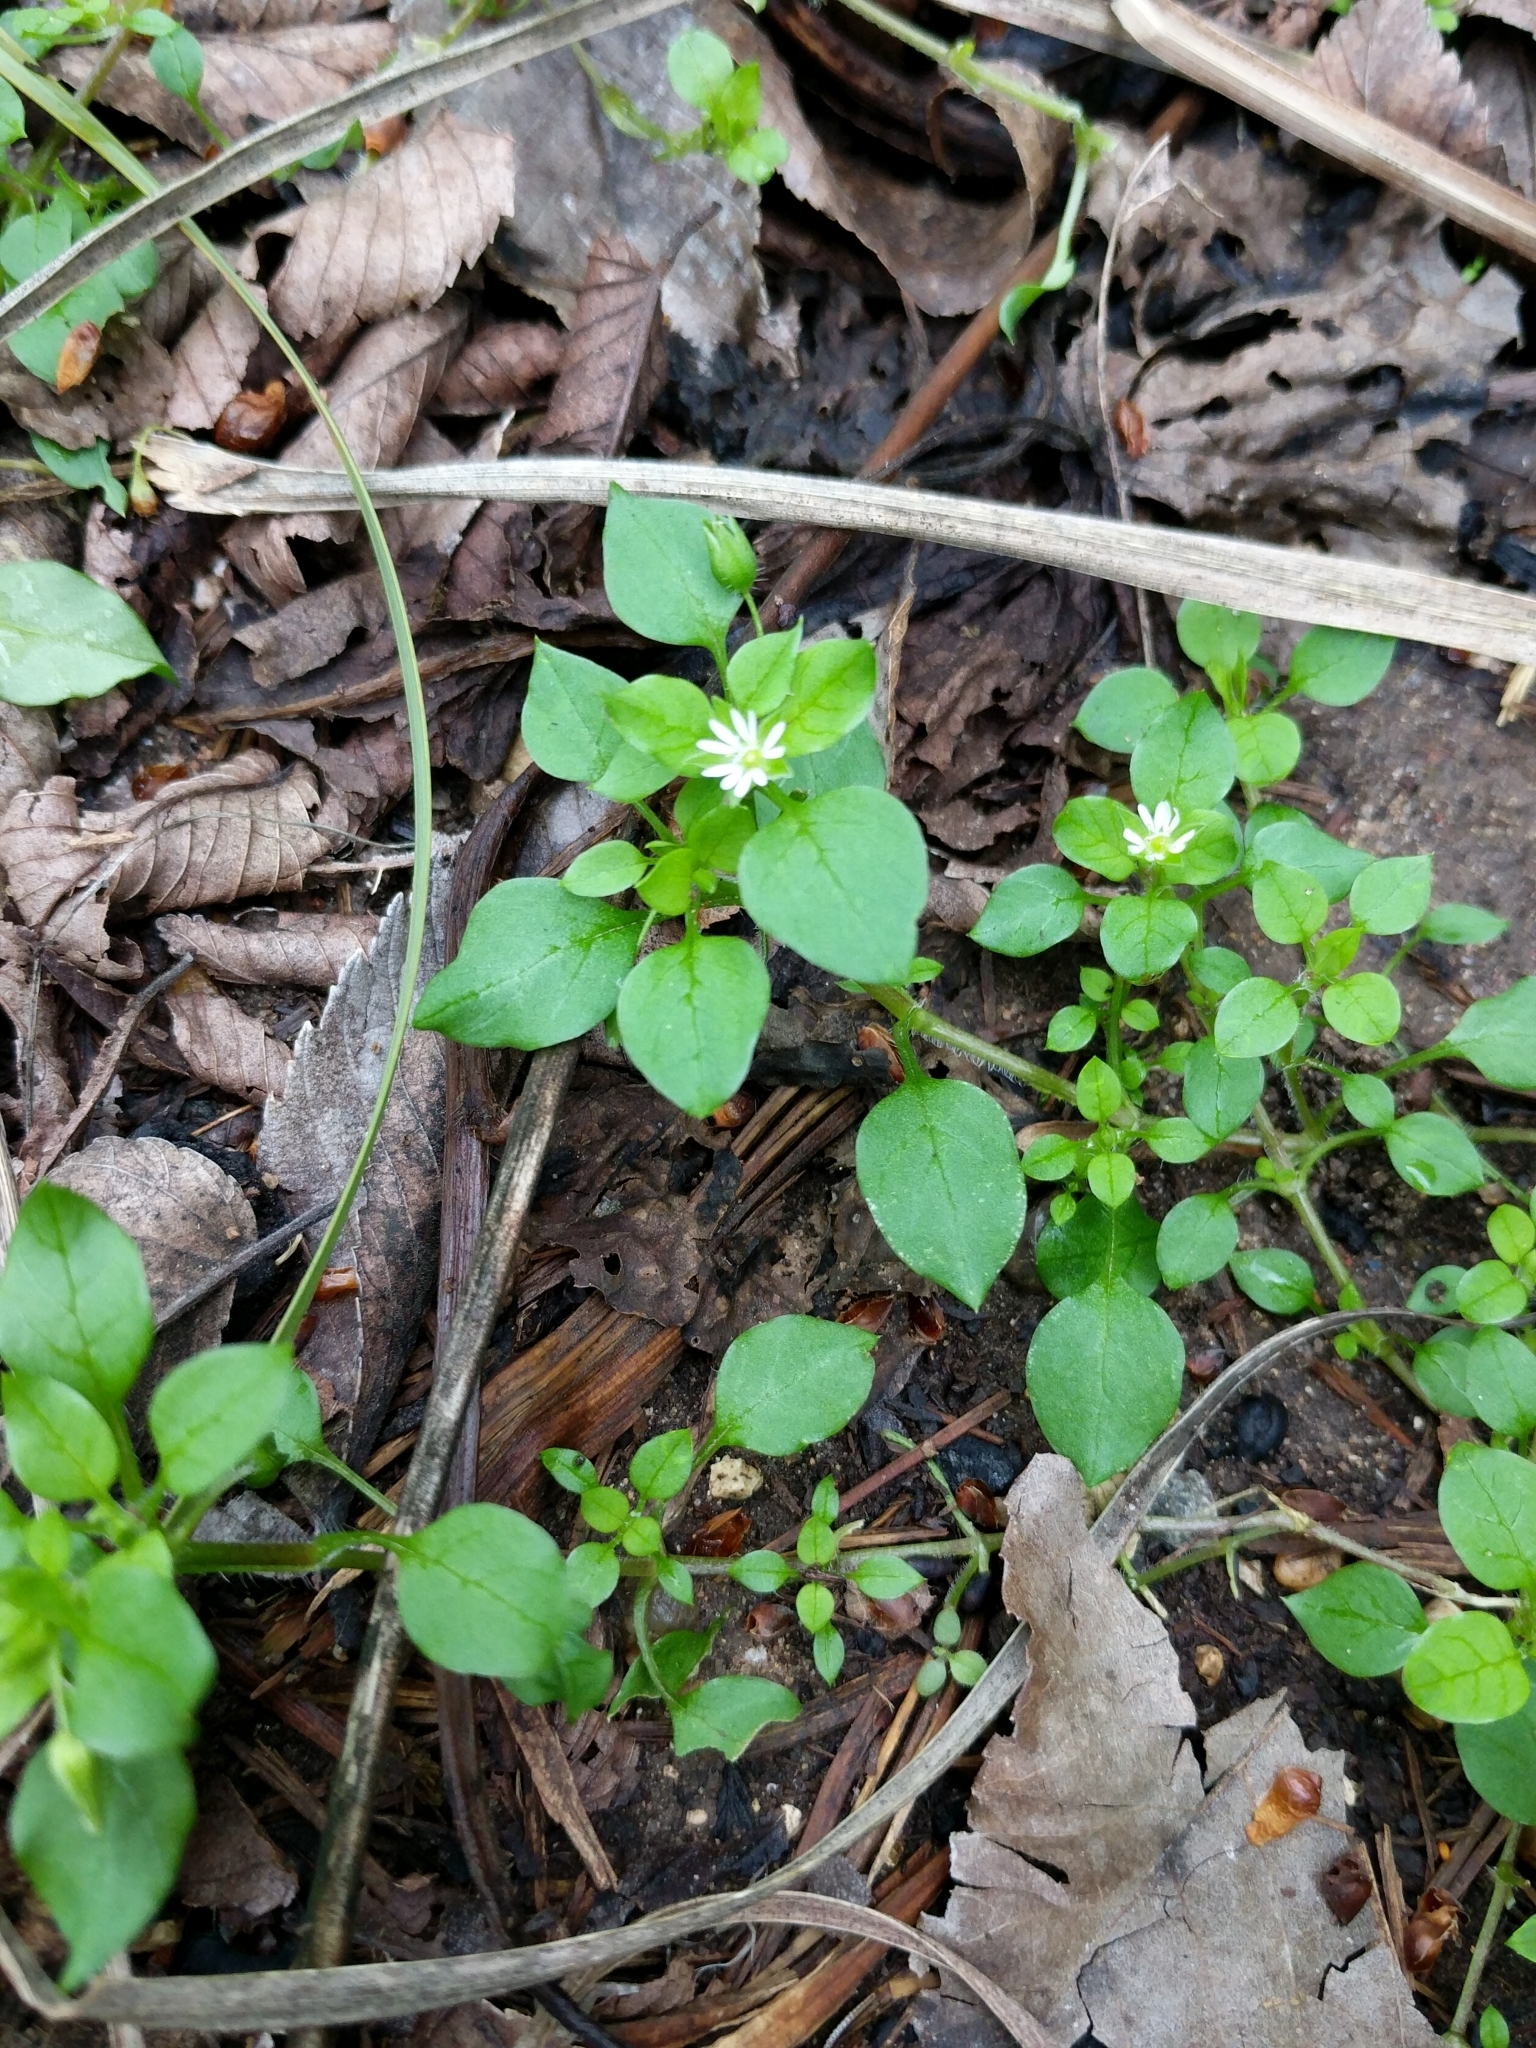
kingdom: Plantae
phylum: Tracheophyta
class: Magnoliopsida
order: Caryophyllales
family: Caryophyllaceae
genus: Stellaria
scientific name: Stellaria media
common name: Common chickweed
